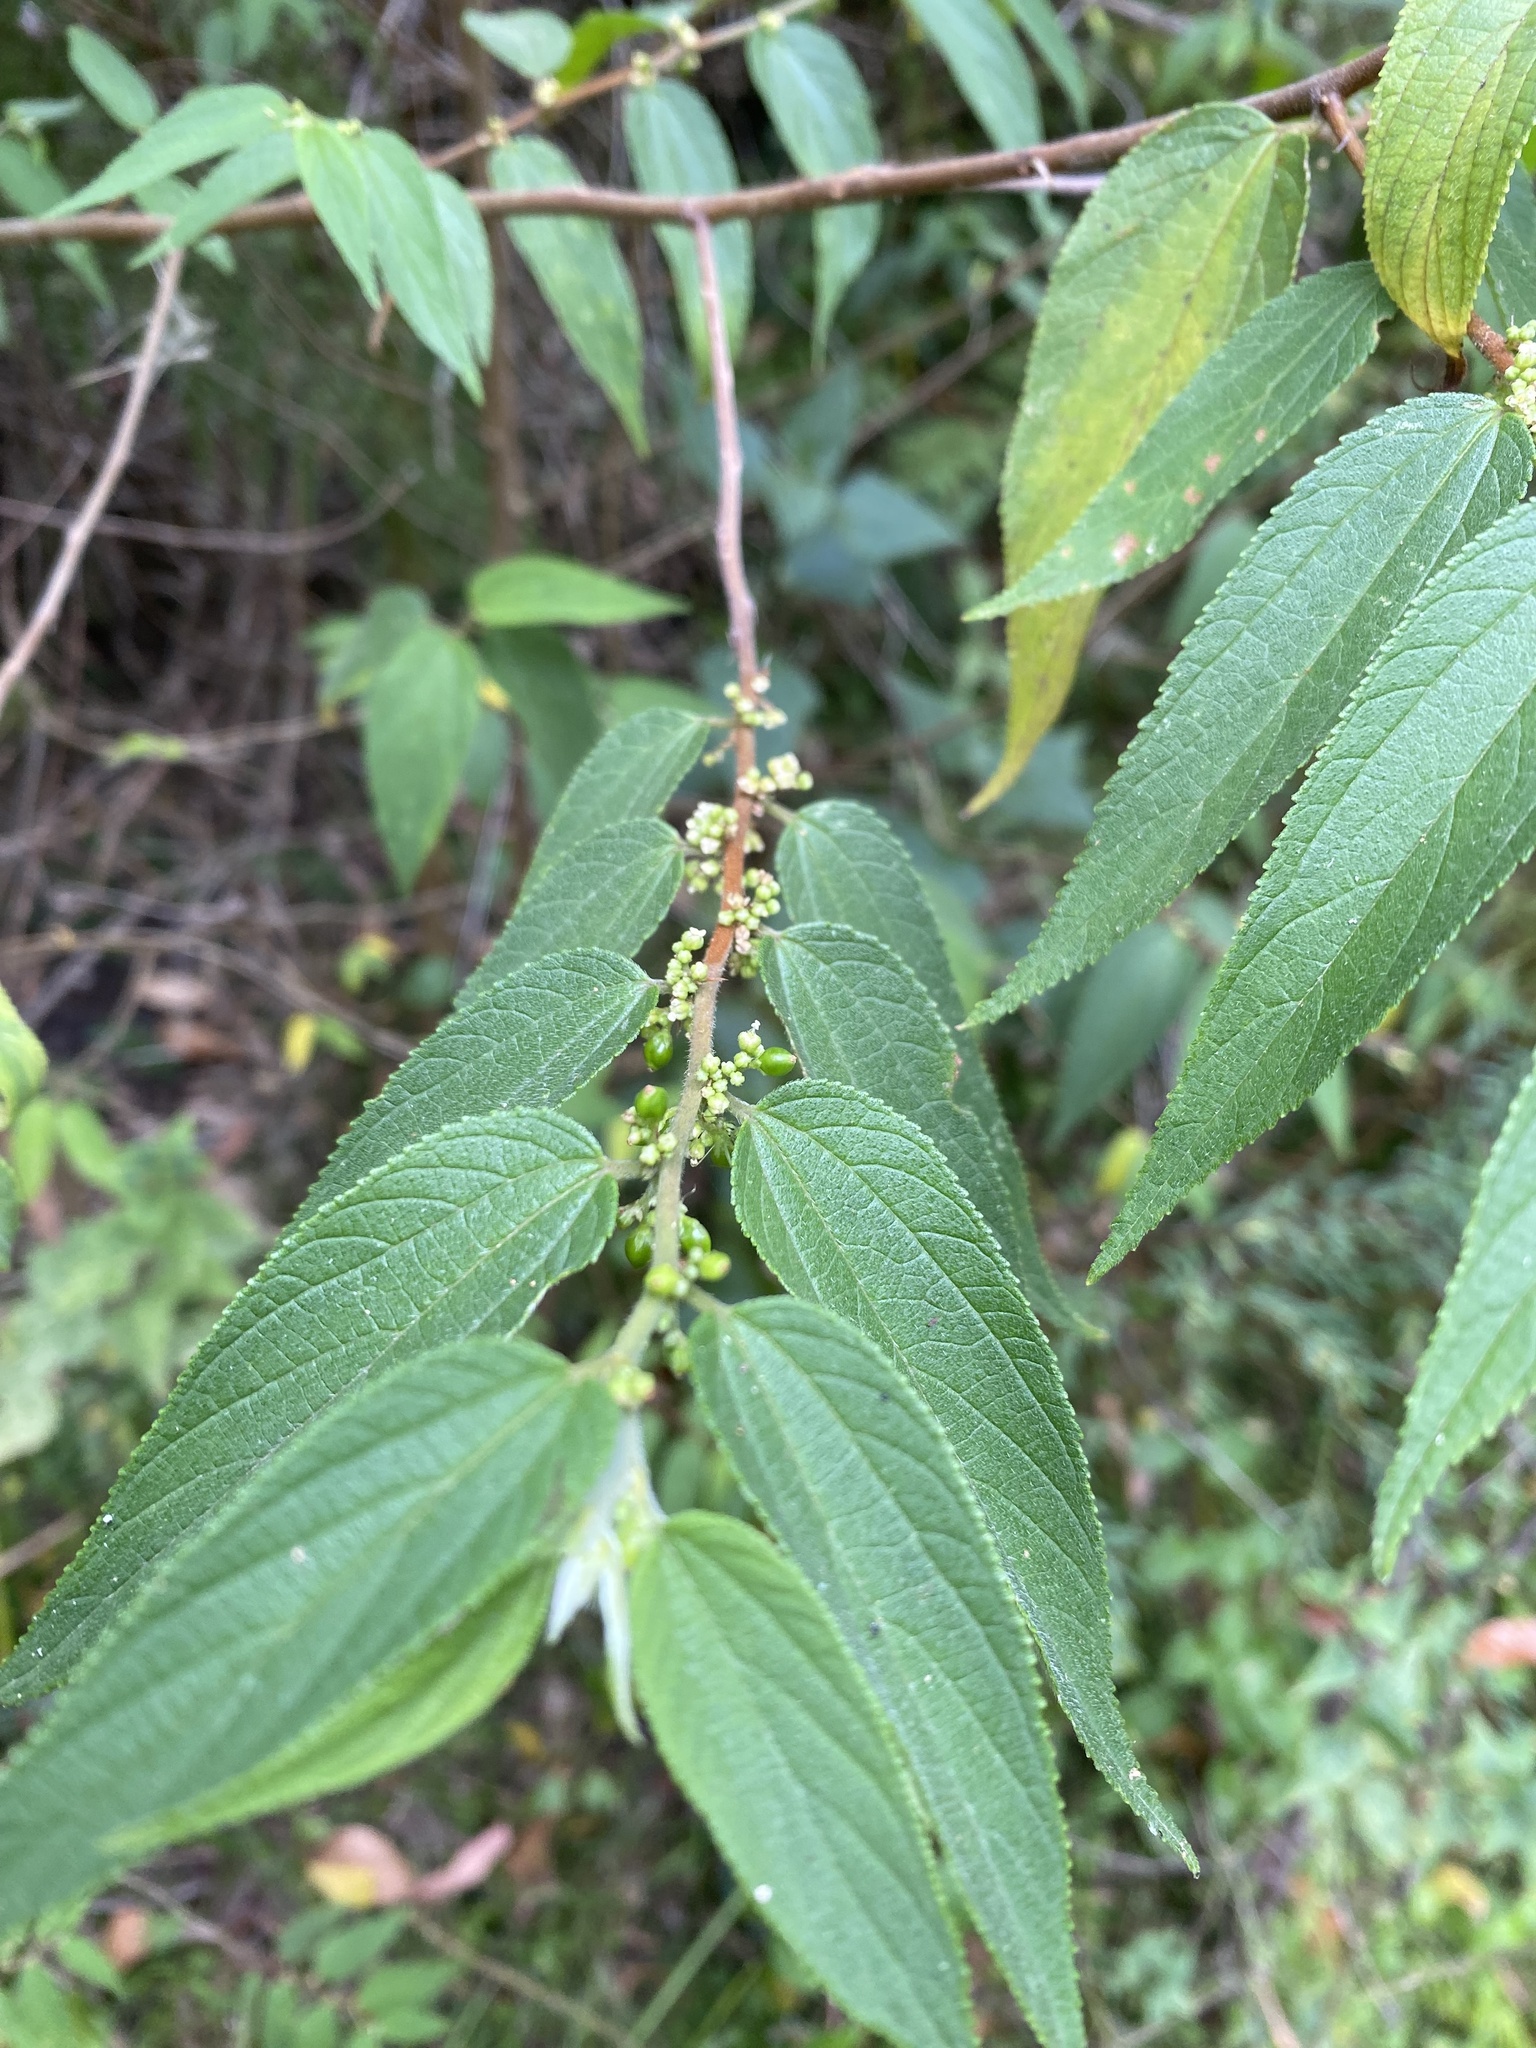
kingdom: Plantae
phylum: Tracheophyta
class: Magnoliopsida
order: Rosales
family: Cannabaceae
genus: Trema
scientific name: Trema tomentosum
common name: Peach-leaf-poisonbush
